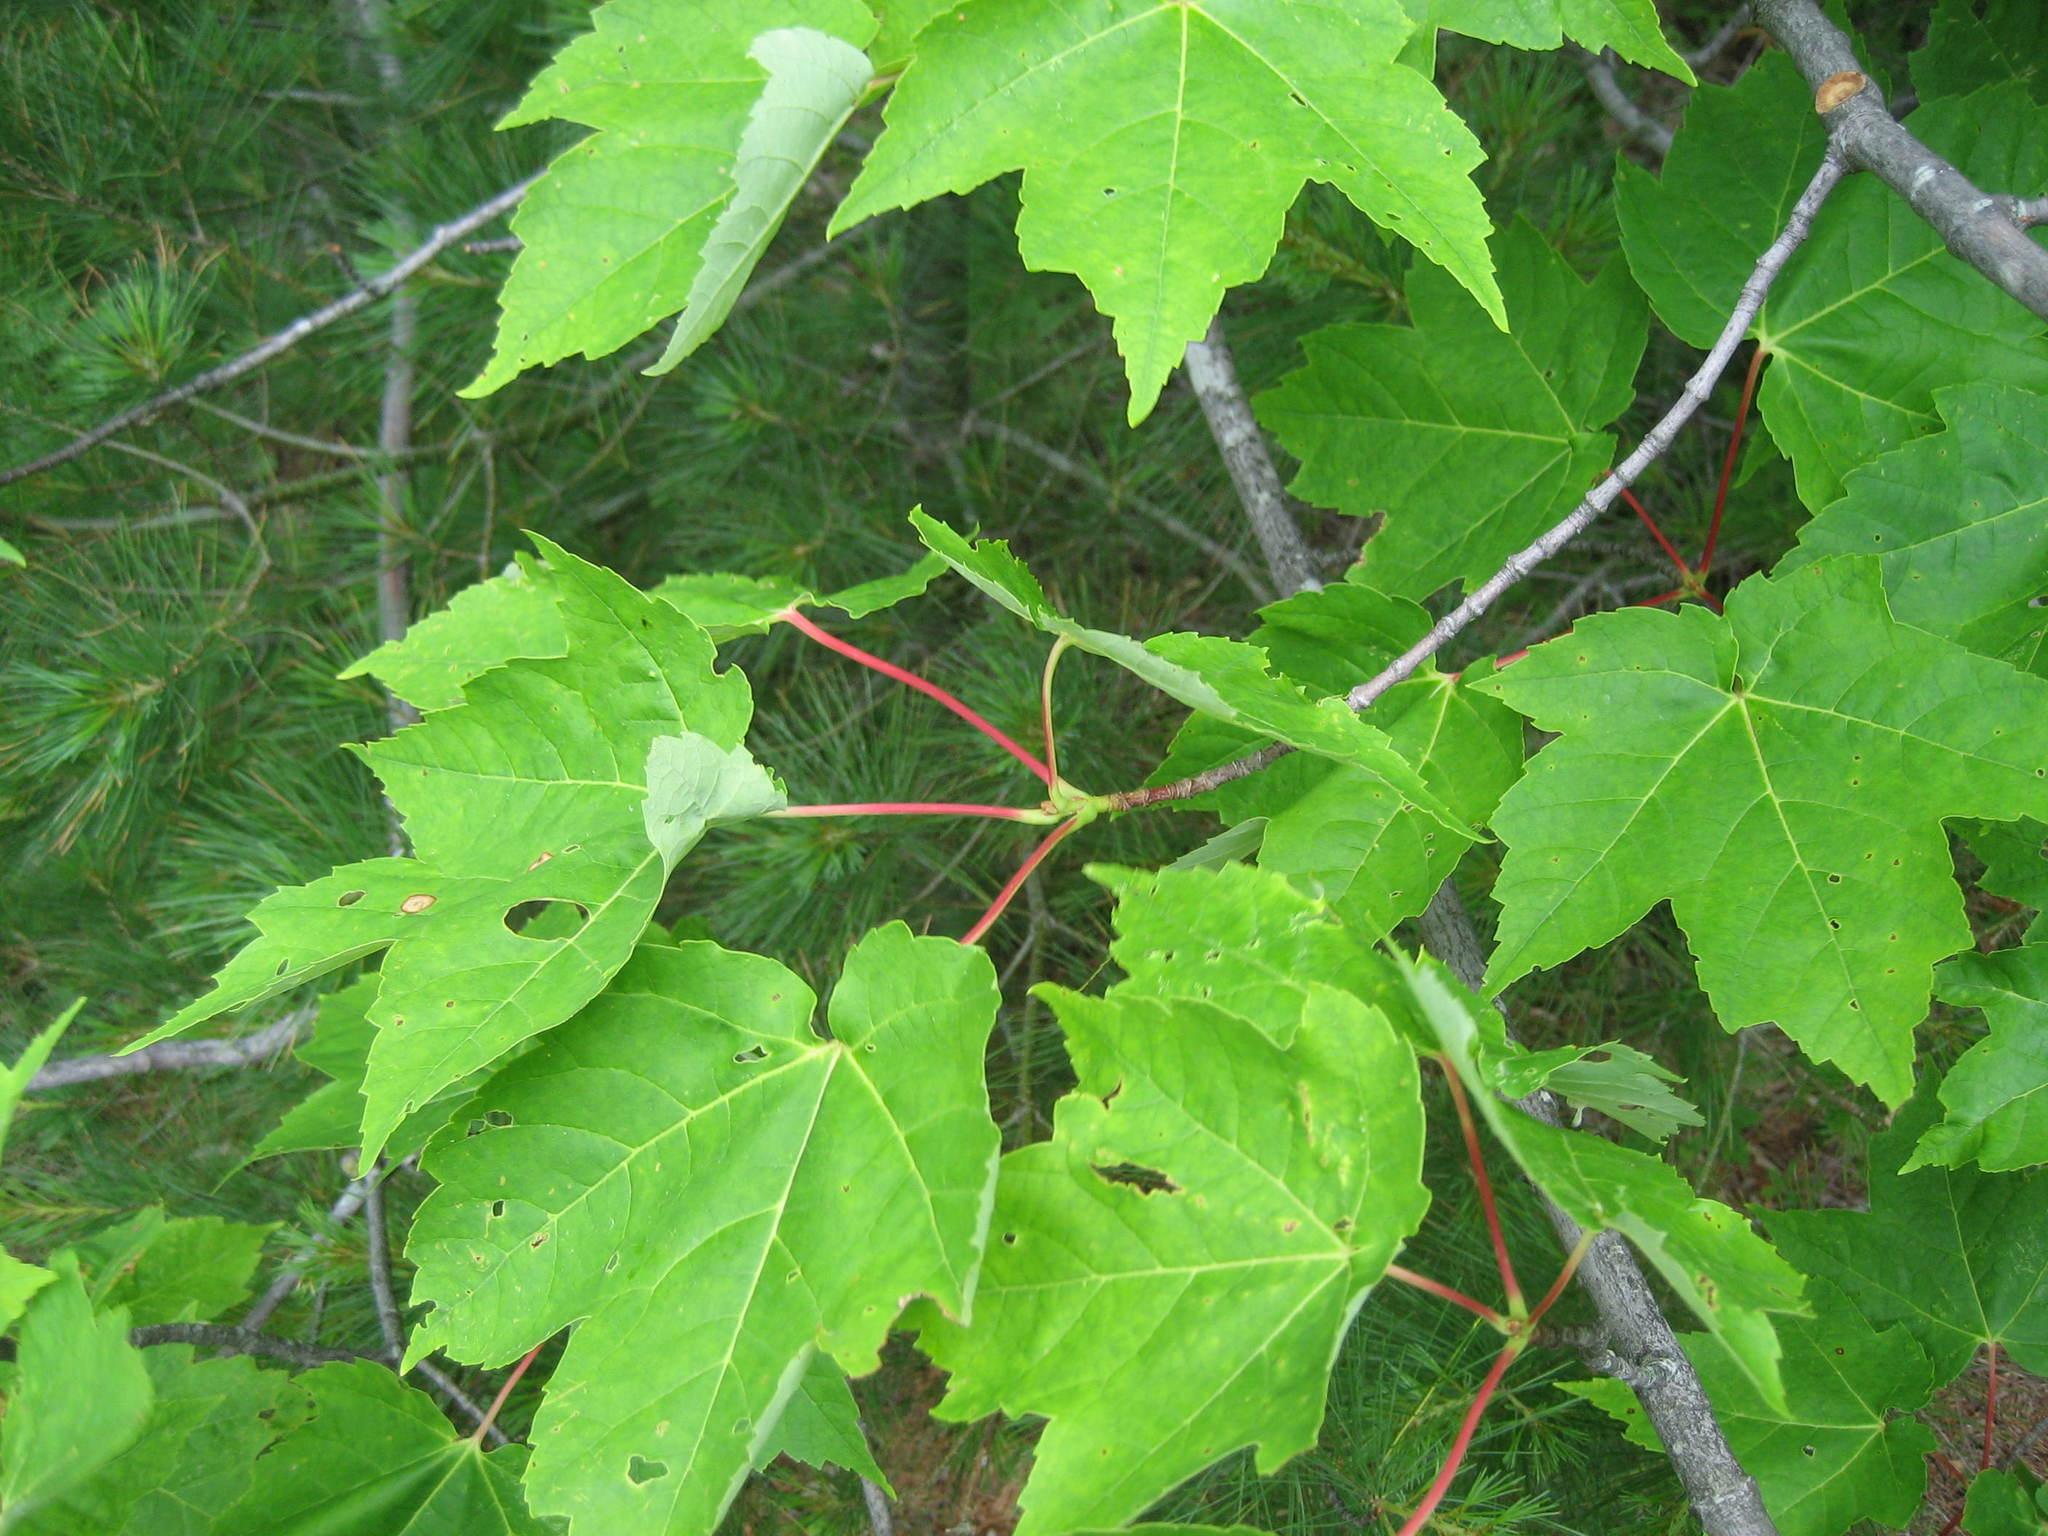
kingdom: Plantae
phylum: Tracheophyta
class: Magnoliopsida
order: Sapindales
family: Sapindaceae
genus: Acer
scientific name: Acer rubrum
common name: Red maple
